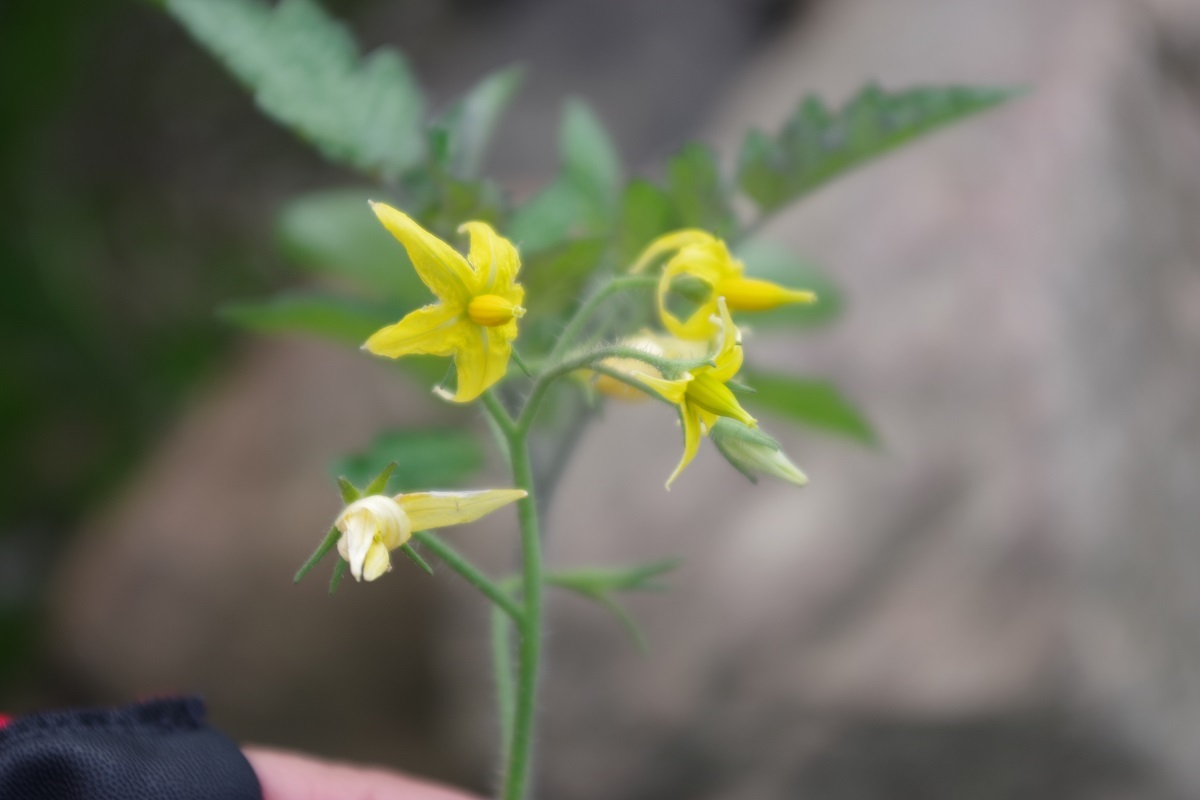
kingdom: Plantae
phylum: Tracheophyta
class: Magnoliopsida
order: Solanales
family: Solanaceae
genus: Solanum
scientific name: Solanum lycopersicum
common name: Garden tomato
